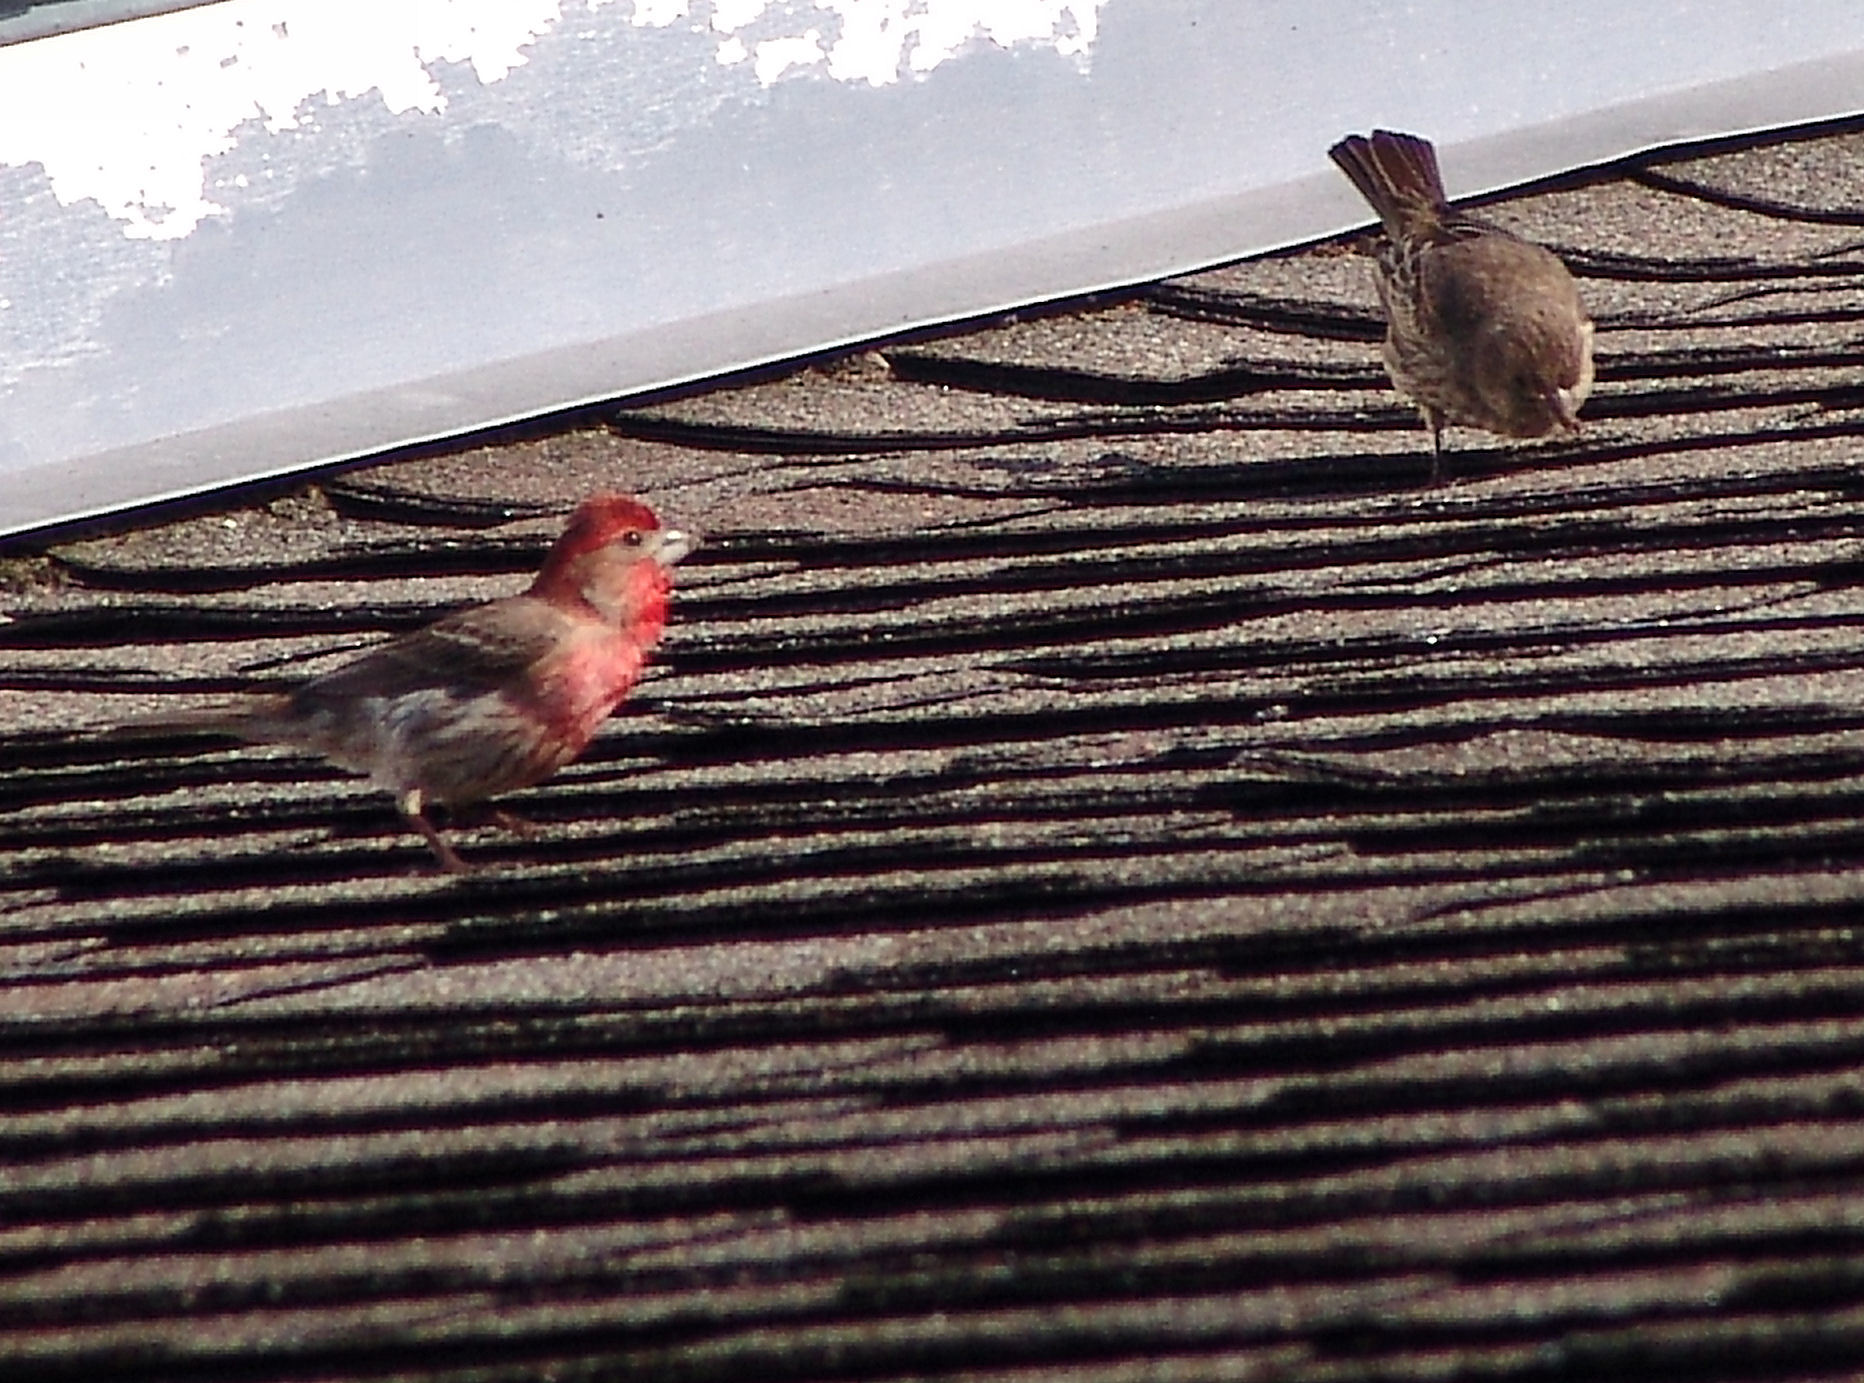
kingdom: Animalia
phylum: Chordata
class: Aves
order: Passeriformes
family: Fringillidae
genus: Haemorhous
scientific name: Haemorhous mexicanus
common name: House finch
